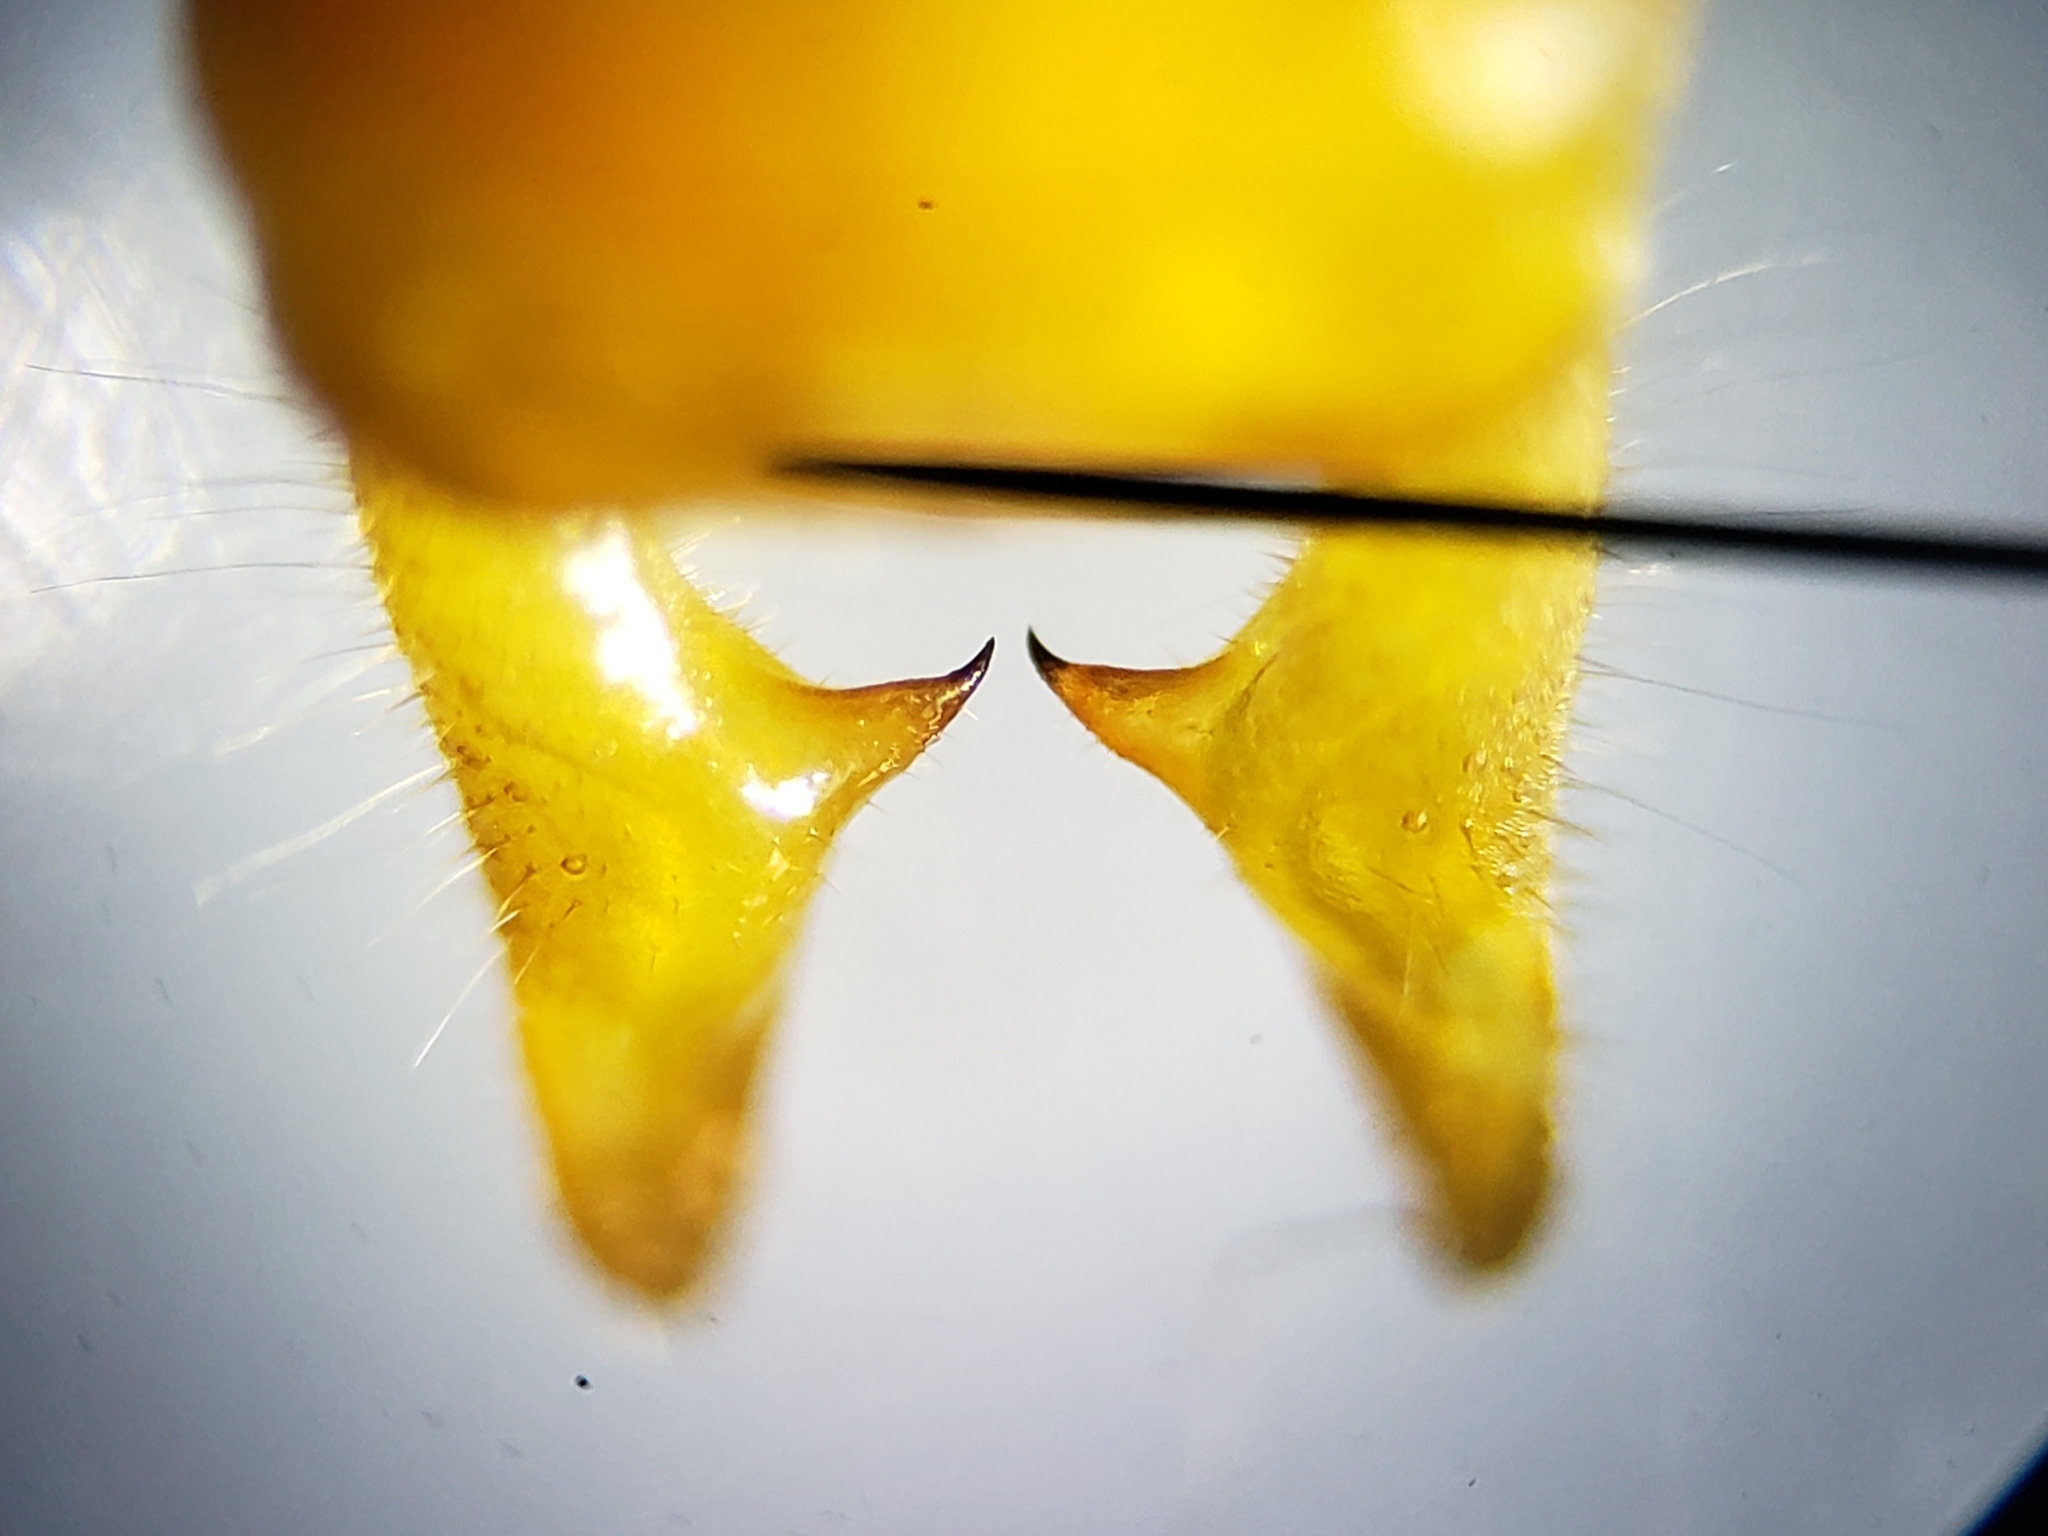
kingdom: Animalia
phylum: Arthropoda
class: Insecta
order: Orthoptera
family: Tettigoniidae
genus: Conocephalus
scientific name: Conocephalus cinereus
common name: Caribbean meadow katydid
